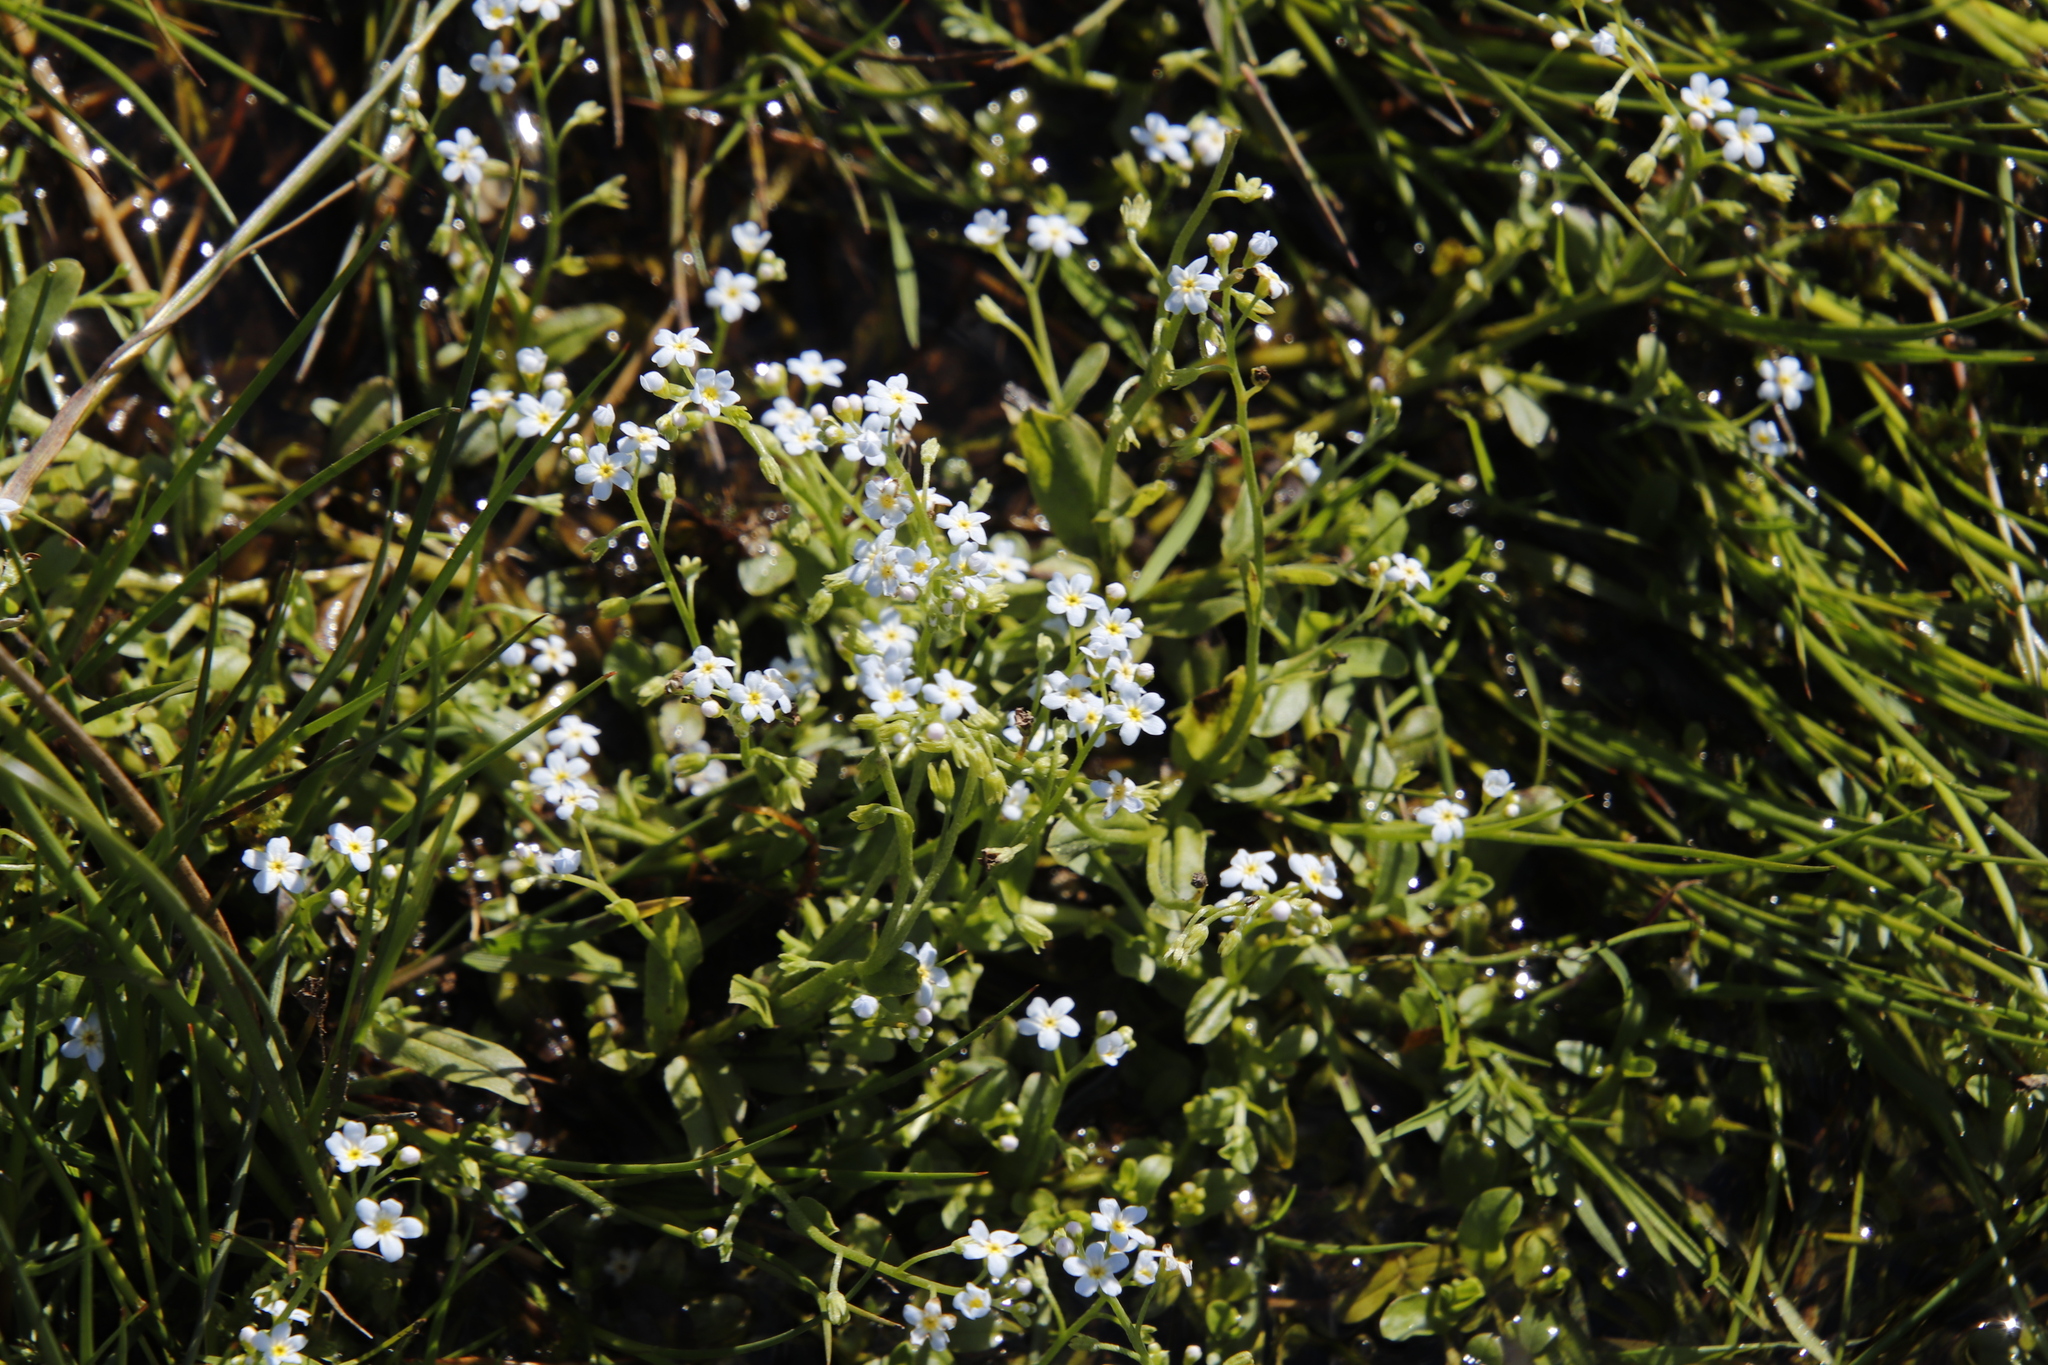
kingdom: Plantae
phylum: Tracheophyta
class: Magnoliopsida
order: Boraginales
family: Boraginaceae
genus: Myosotis
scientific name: Myosotis scorpioides
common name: Water forget-me-not
